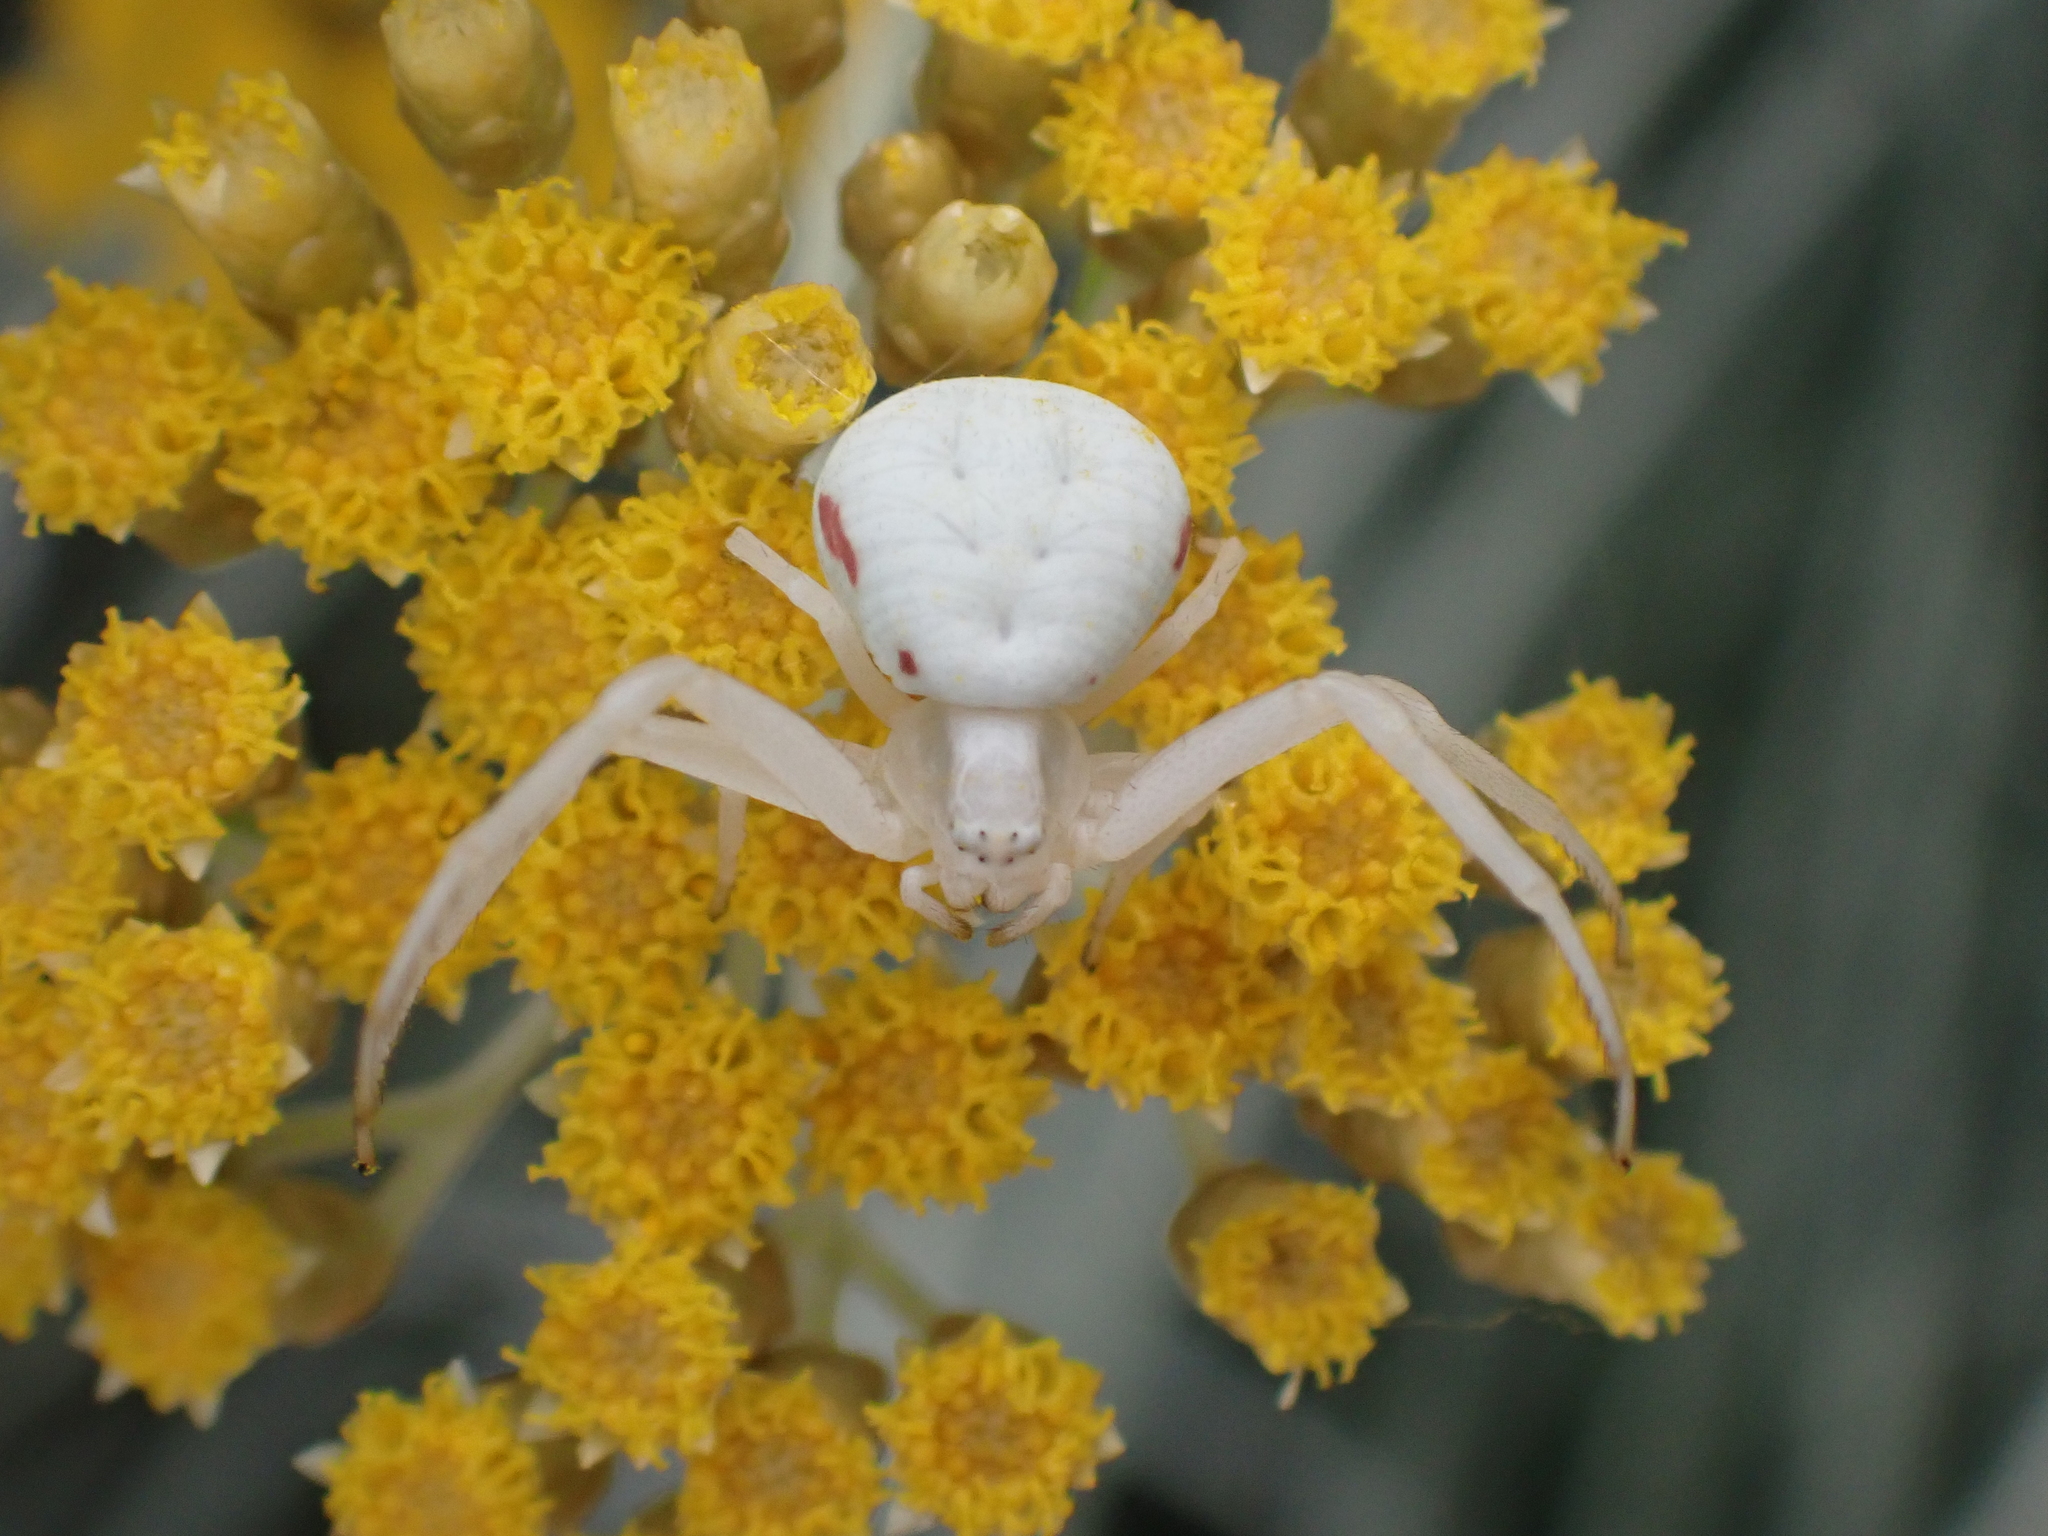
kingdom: Animalia
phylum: Arthropoda
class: Arachnida
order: Araneae
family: Thomisidae
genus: Misumena
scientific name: Misumena vatia
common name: Goldenrod crab spider
